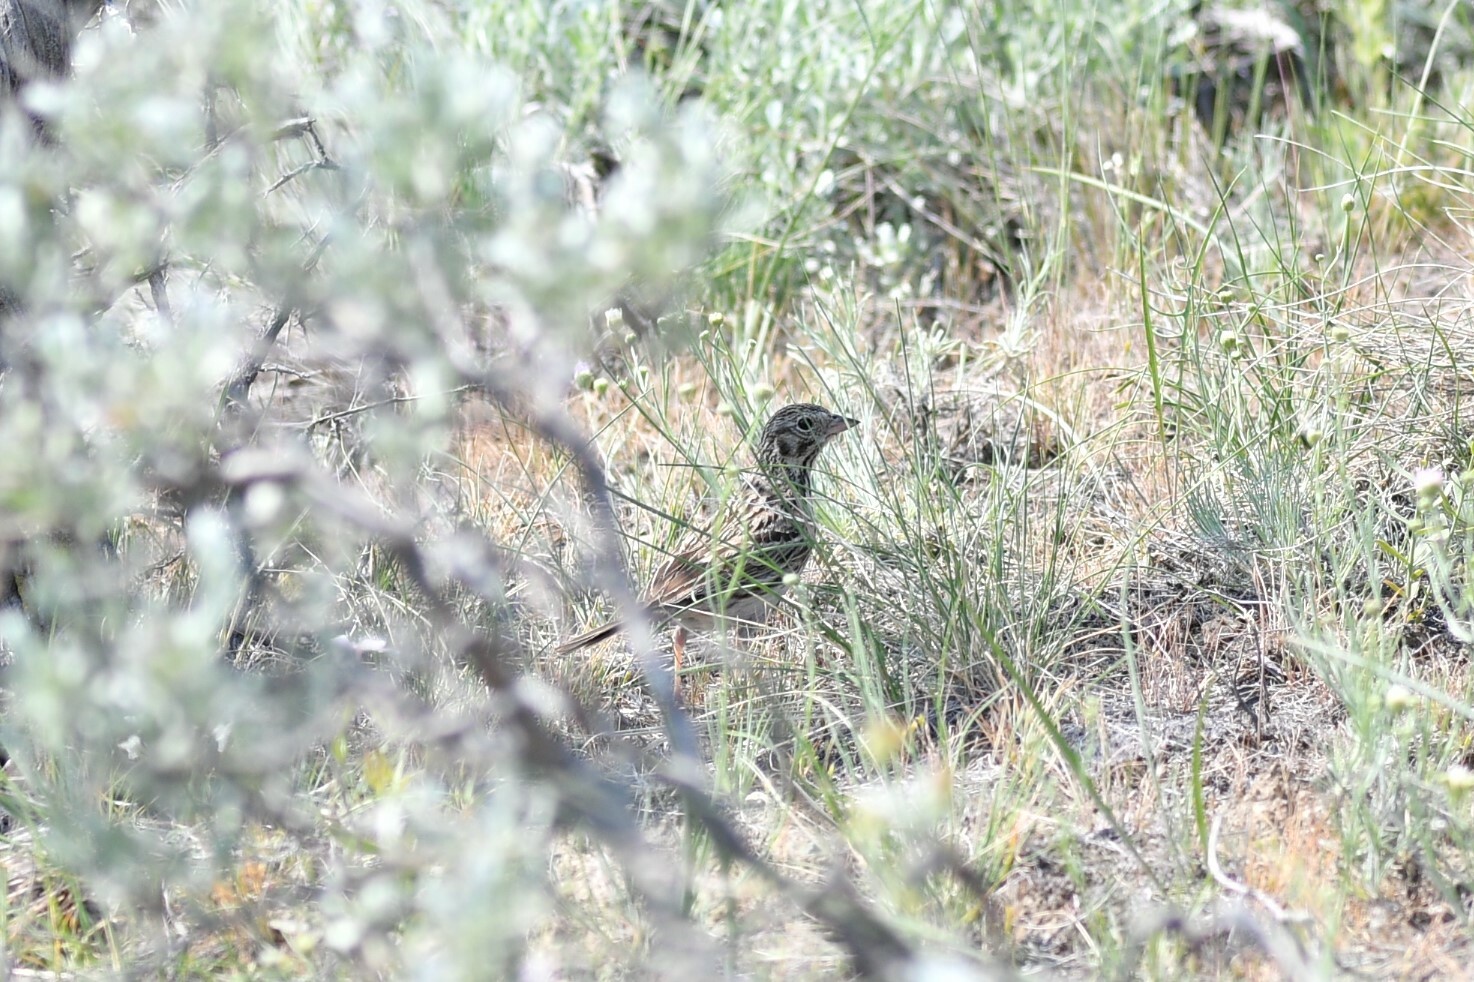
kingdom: Animalia
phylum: Chordata
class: Aves
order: Passeriformes
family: Passerellidae
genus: Pooecetes
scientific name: Pooecetes gramineus
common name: Vesper sparrow
